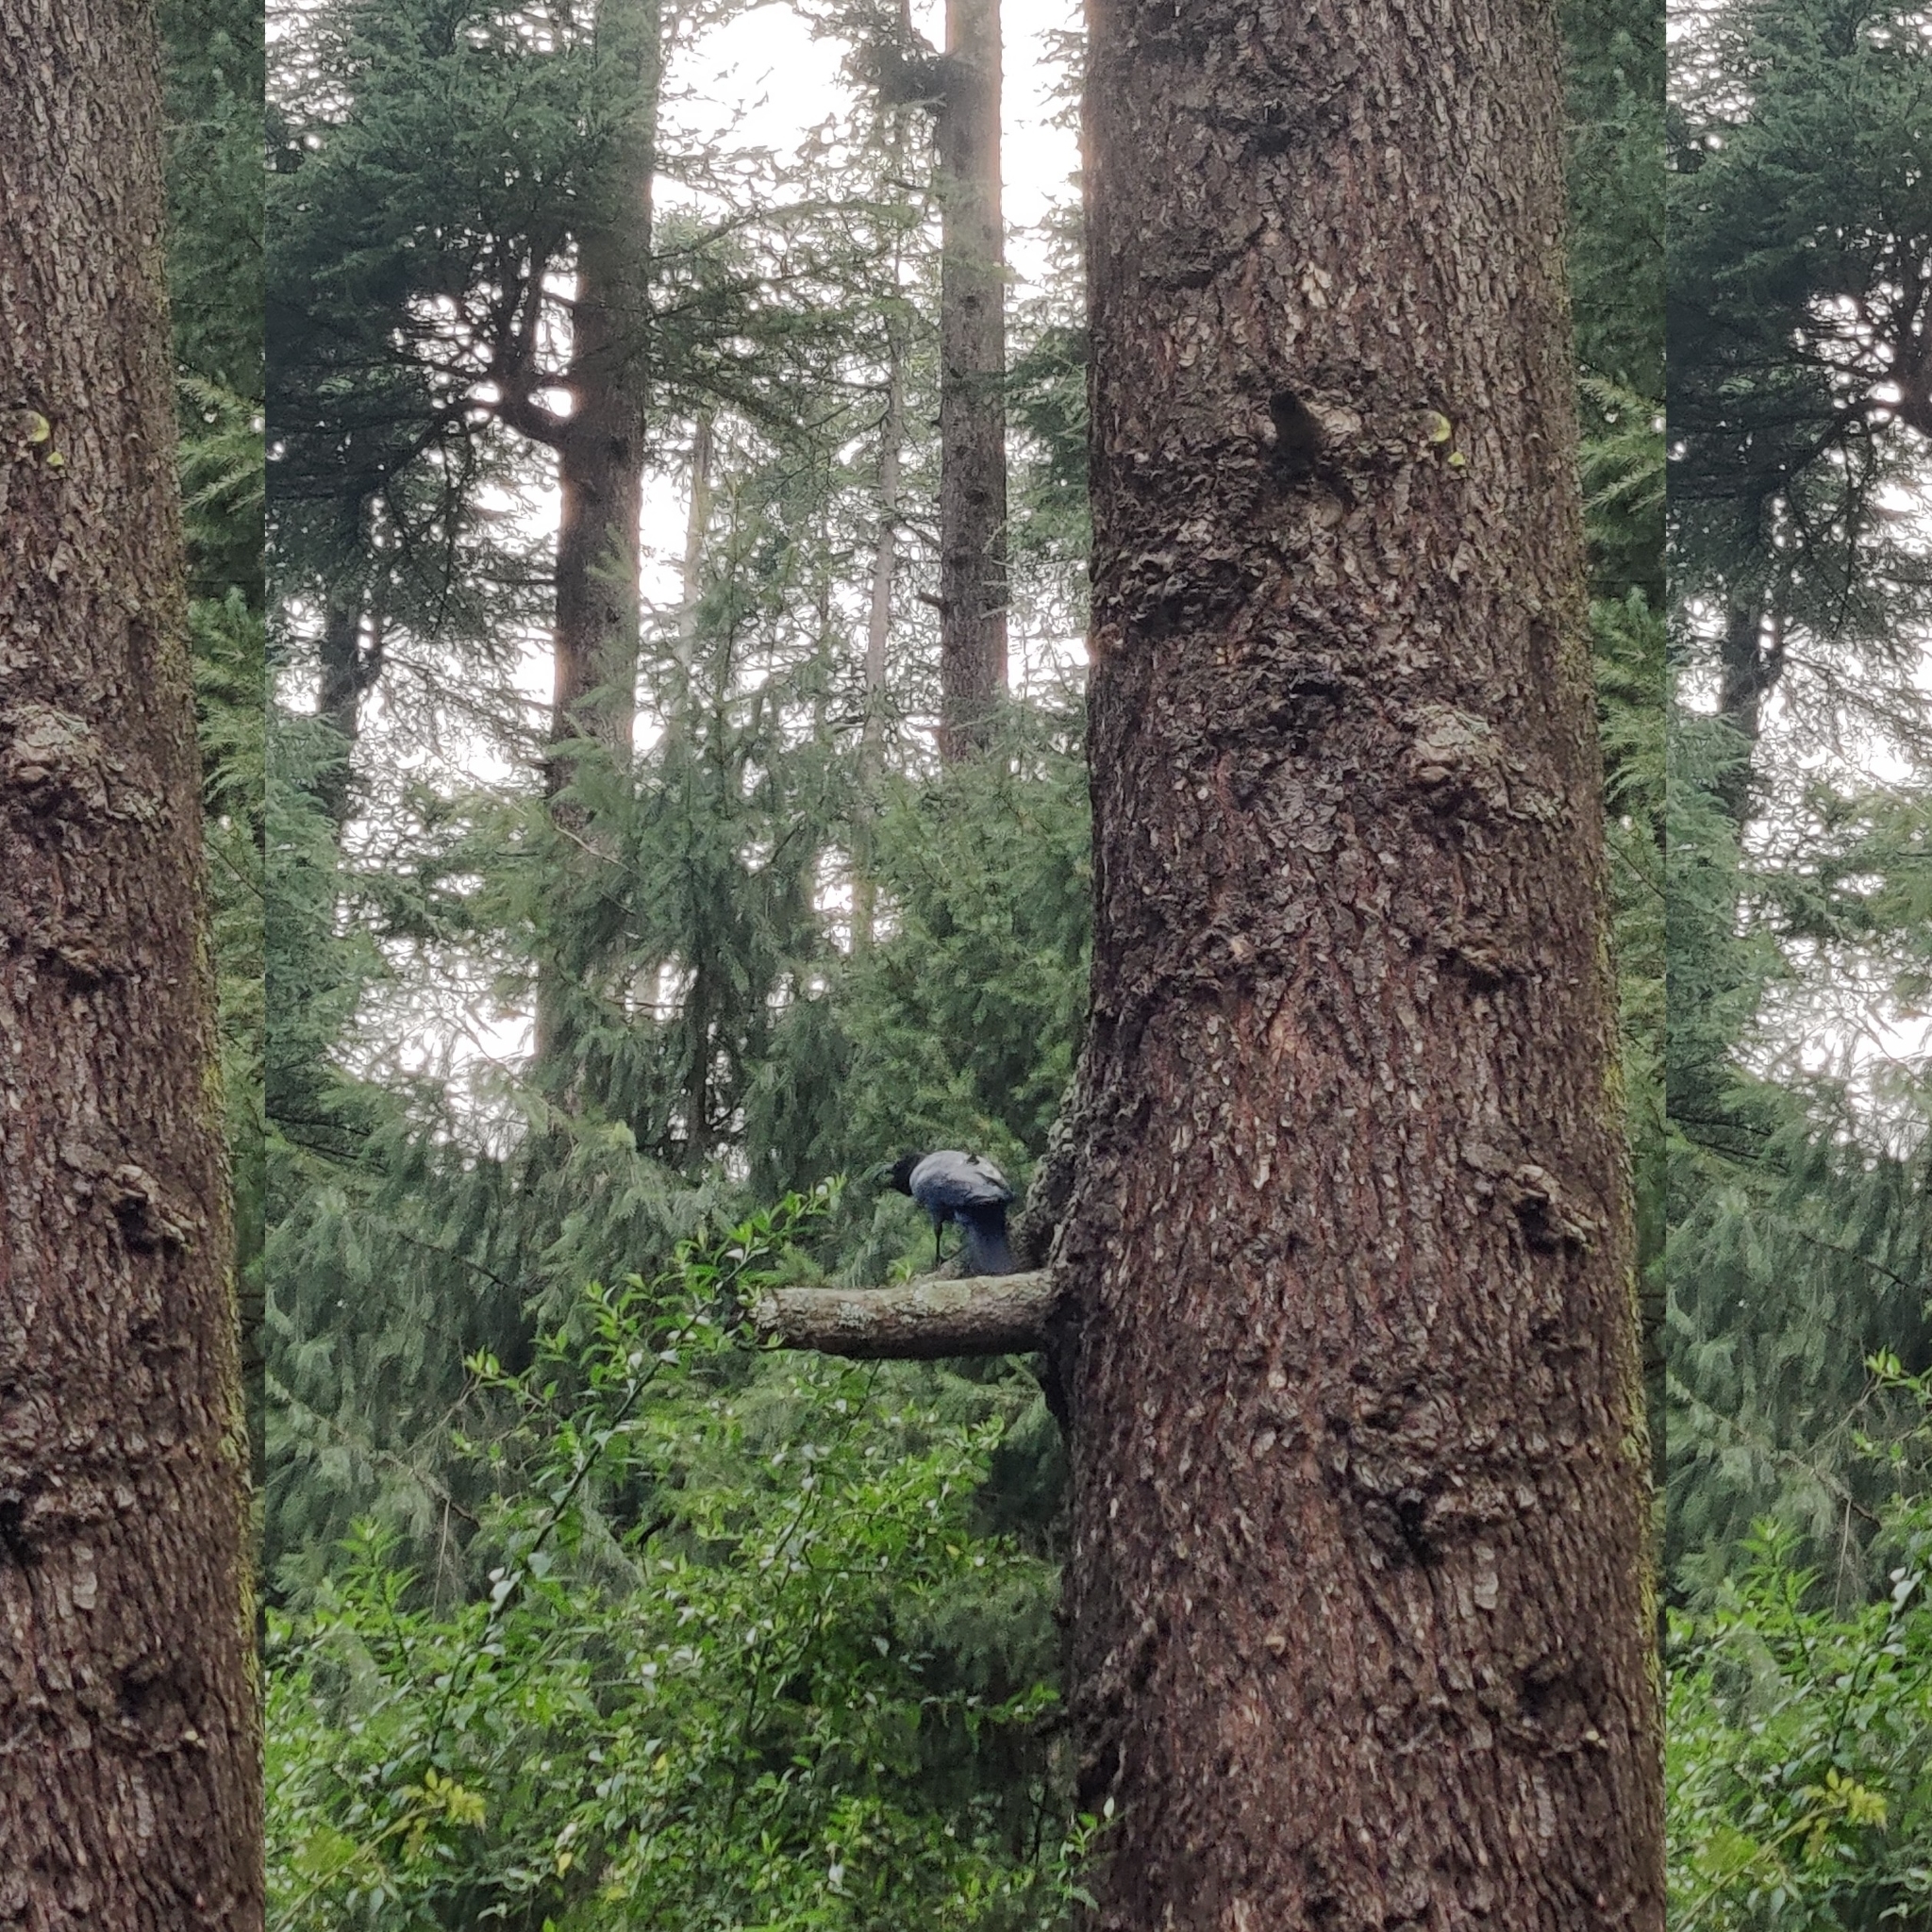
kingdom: Animalia
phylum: Chordata
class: Aves
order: Passeriformes
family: Corvidae
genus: Corvus
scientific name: Corvus macrorhynchos
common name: Large-billed crow
